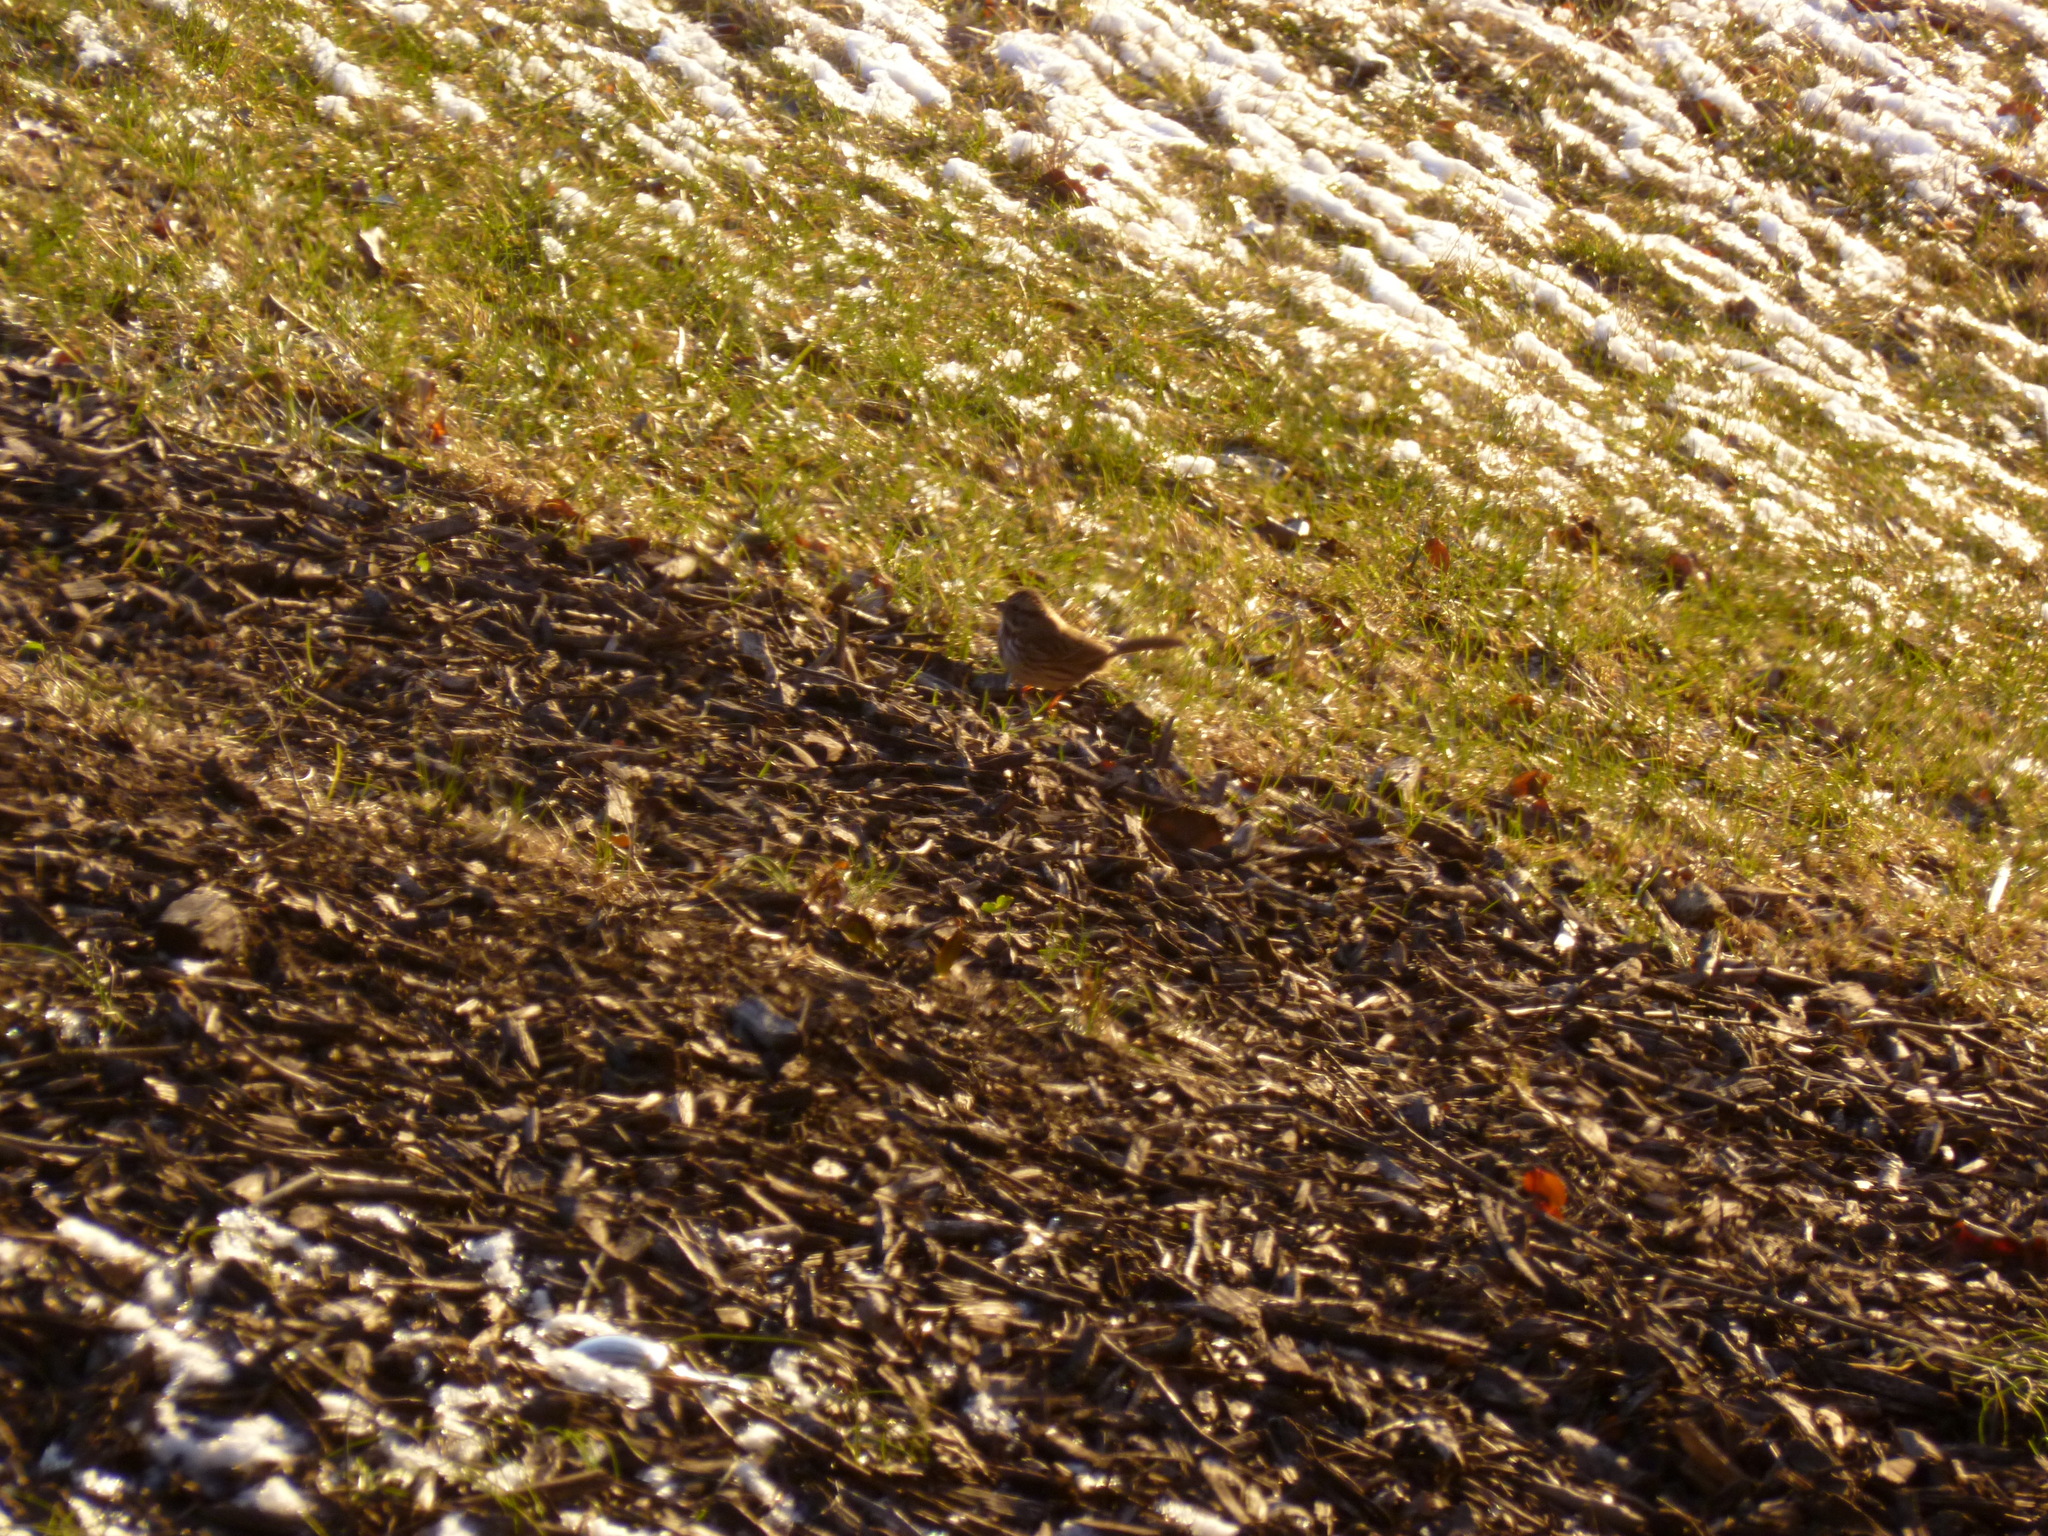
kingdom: Animalia
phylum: Chordata
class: Aves
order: Passeriformes
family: Passerellidae
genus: Melospiza
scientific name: Melospiza melodia
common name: Song sparrow
